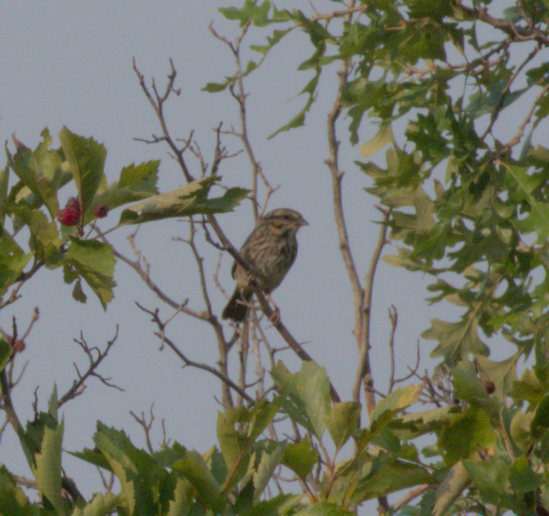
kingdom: Animalia
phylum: Chordata
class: Aves
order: Passeriformes
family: Passerellidae
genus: Melospiza
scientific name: Melospiza melodia
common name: Song sparrow
